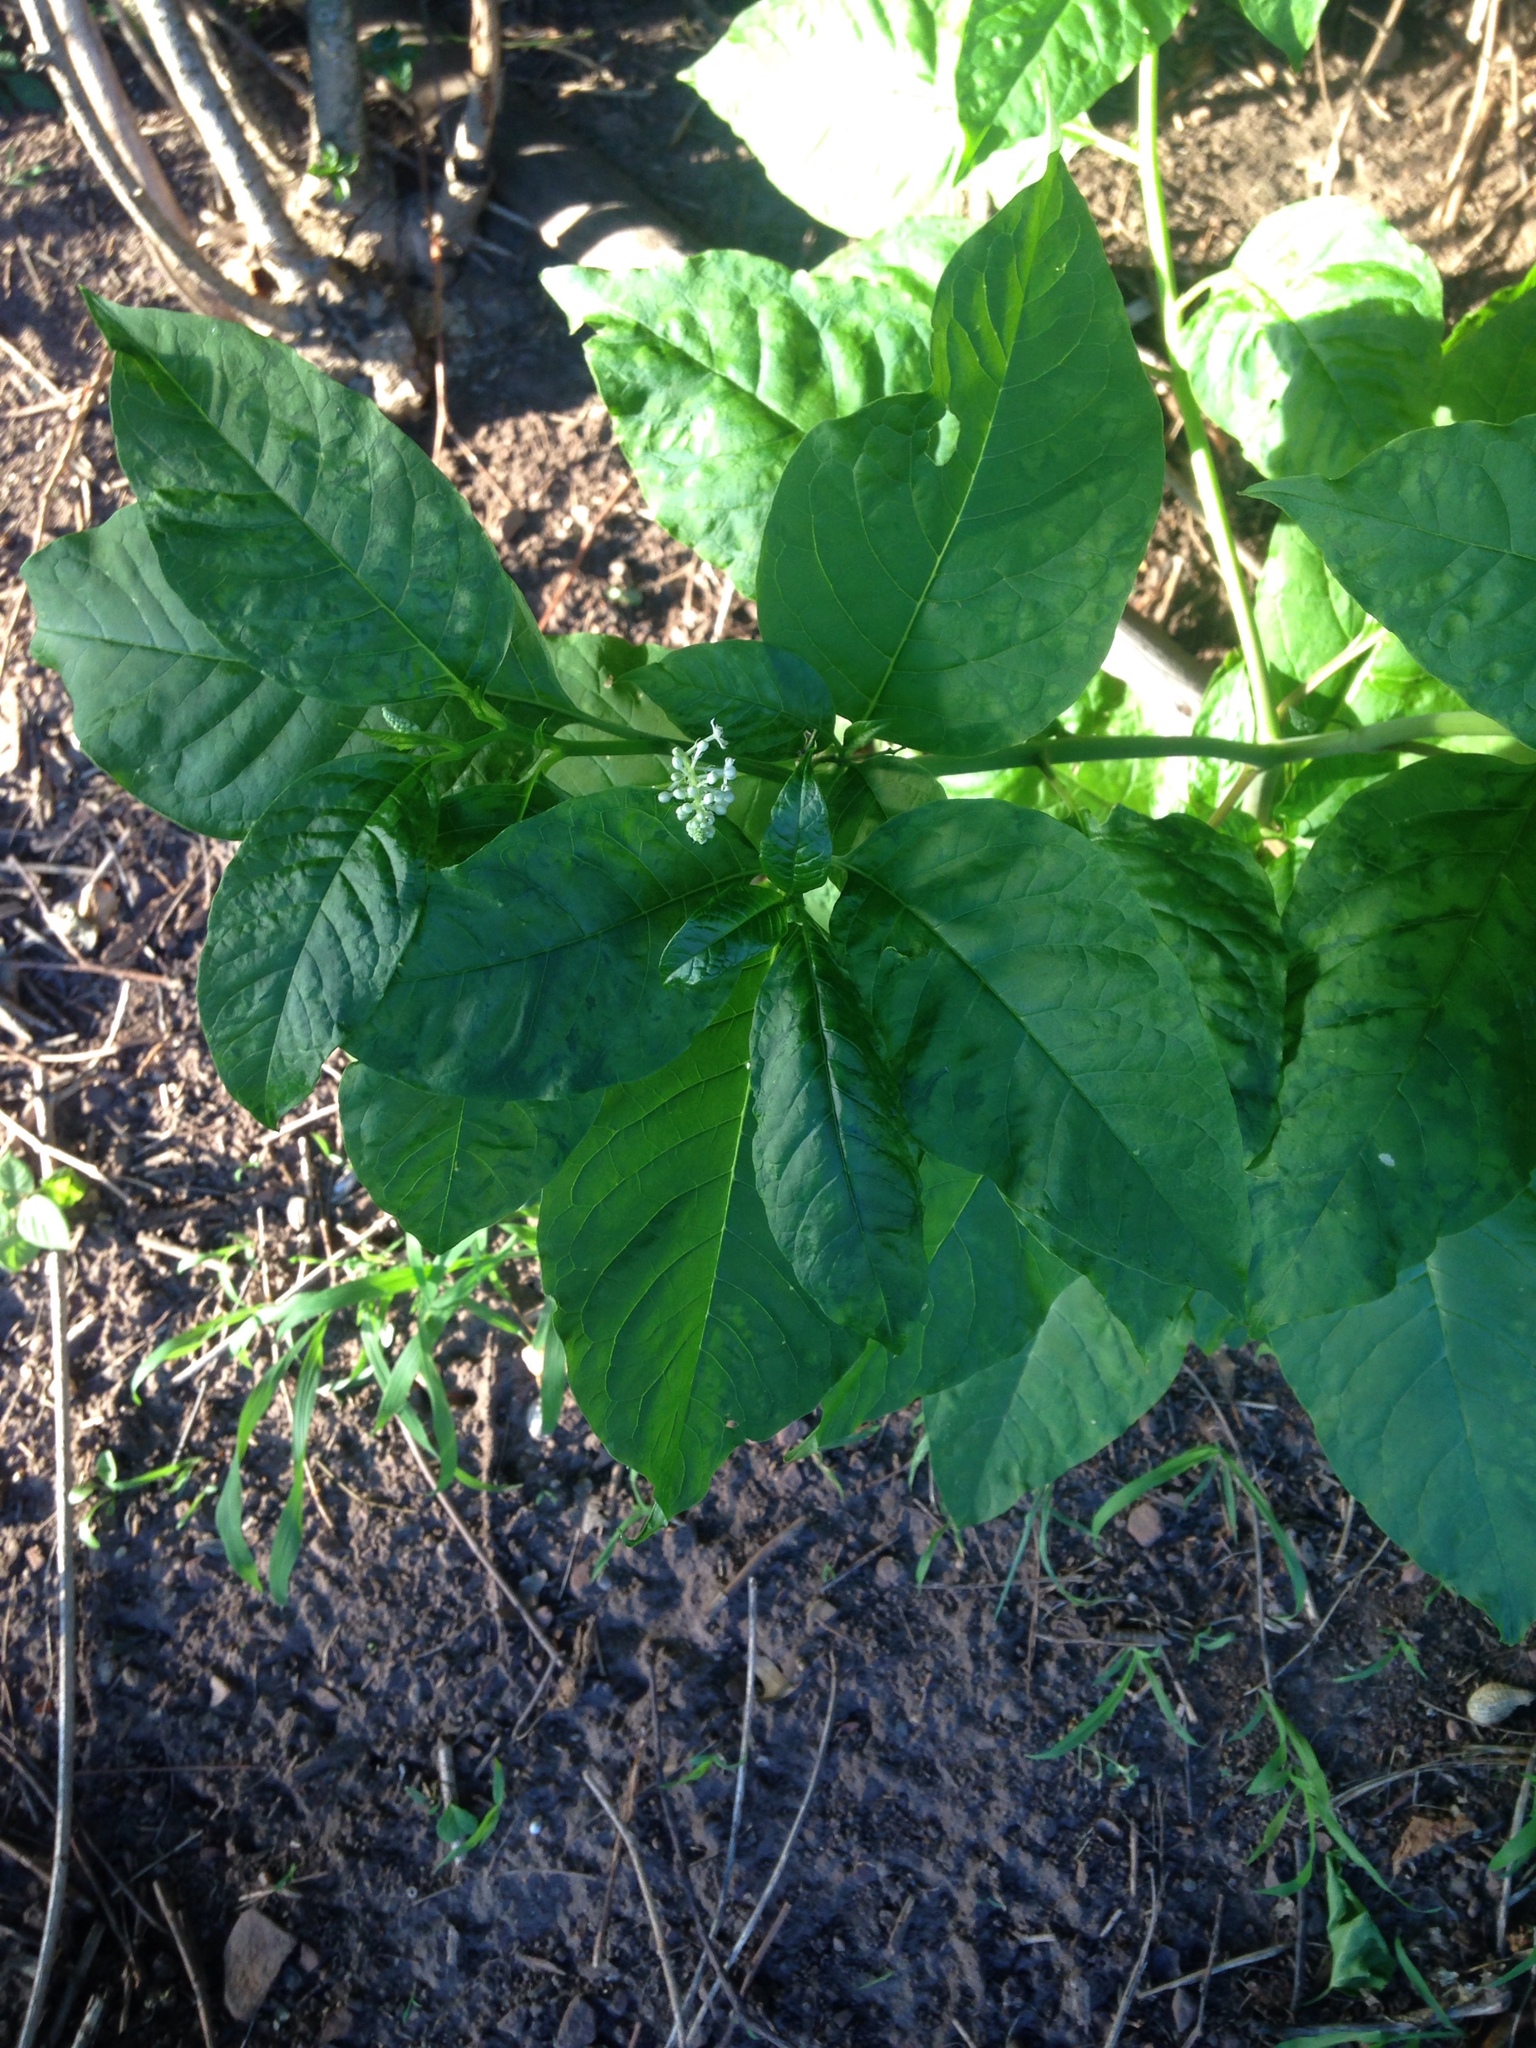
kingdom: Plantae
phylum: Tracheophyta
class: Magnoliopsida
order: Caryophyllales
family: Phytolaccaceae
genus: Phytolacca
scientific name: Phytolacca americana
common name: American pokeweed
